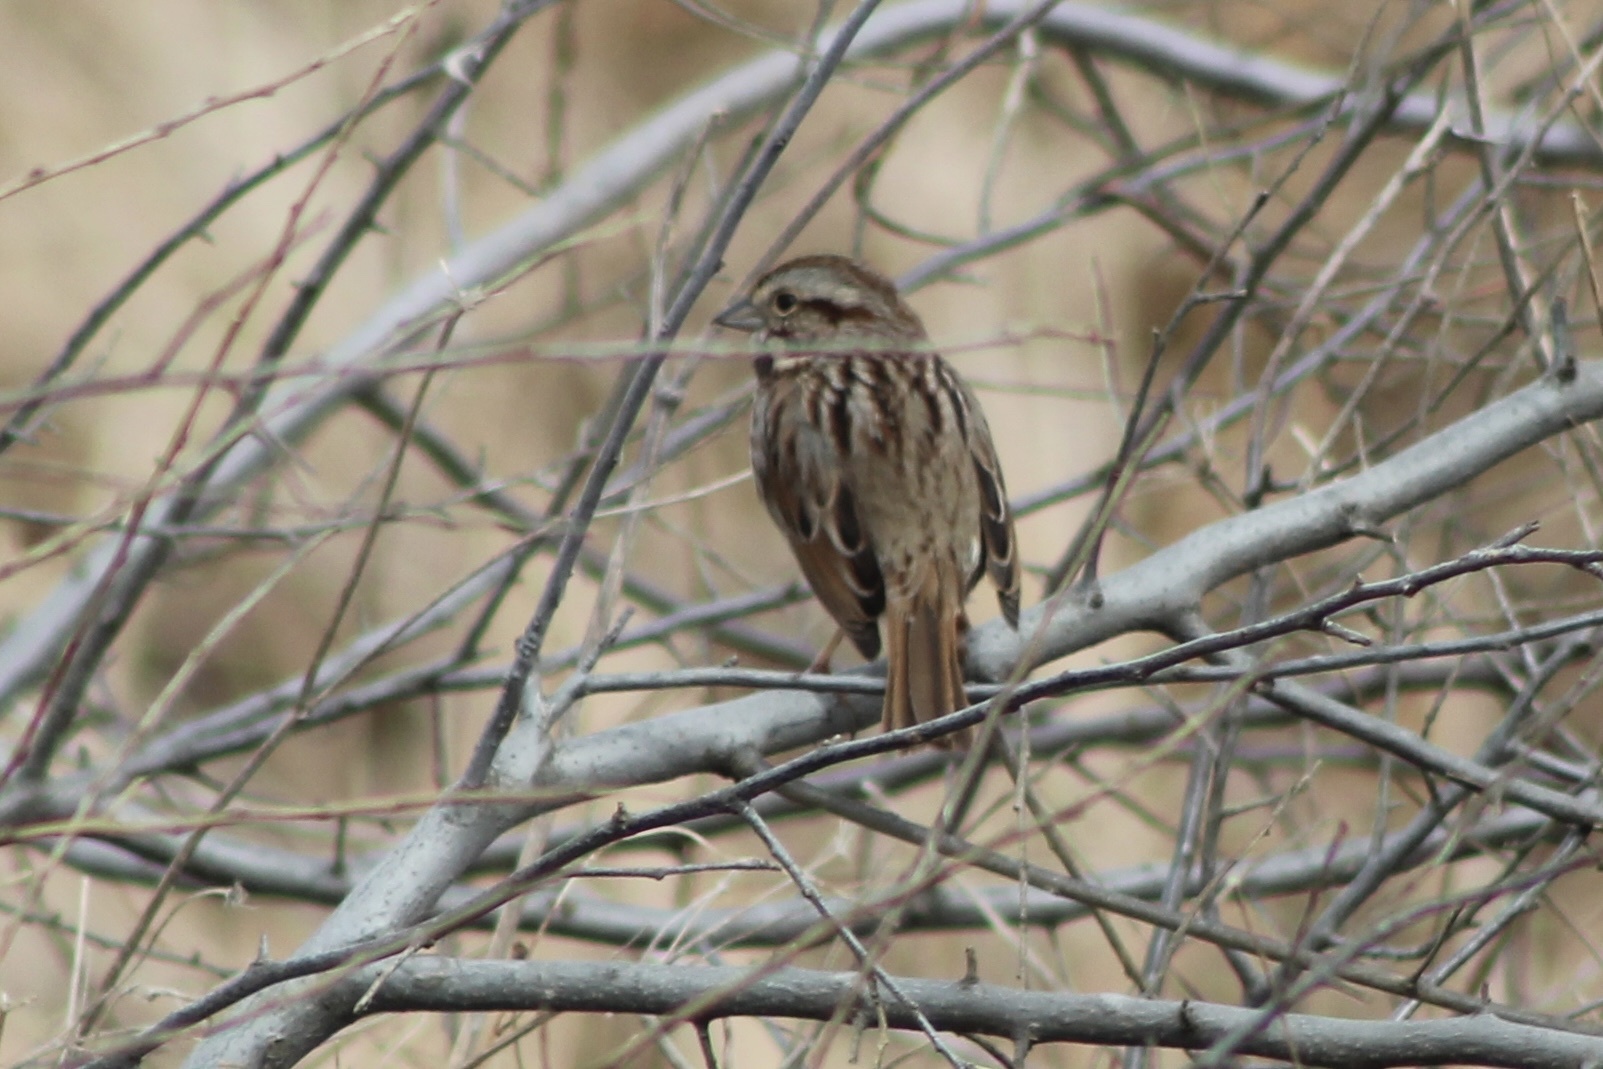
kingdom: Animalia
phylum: Chordata
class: Aves
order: Passeriformes
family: Passerellidae
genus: Melospiza
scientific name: Melospiza melodia
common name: Song sparrow
